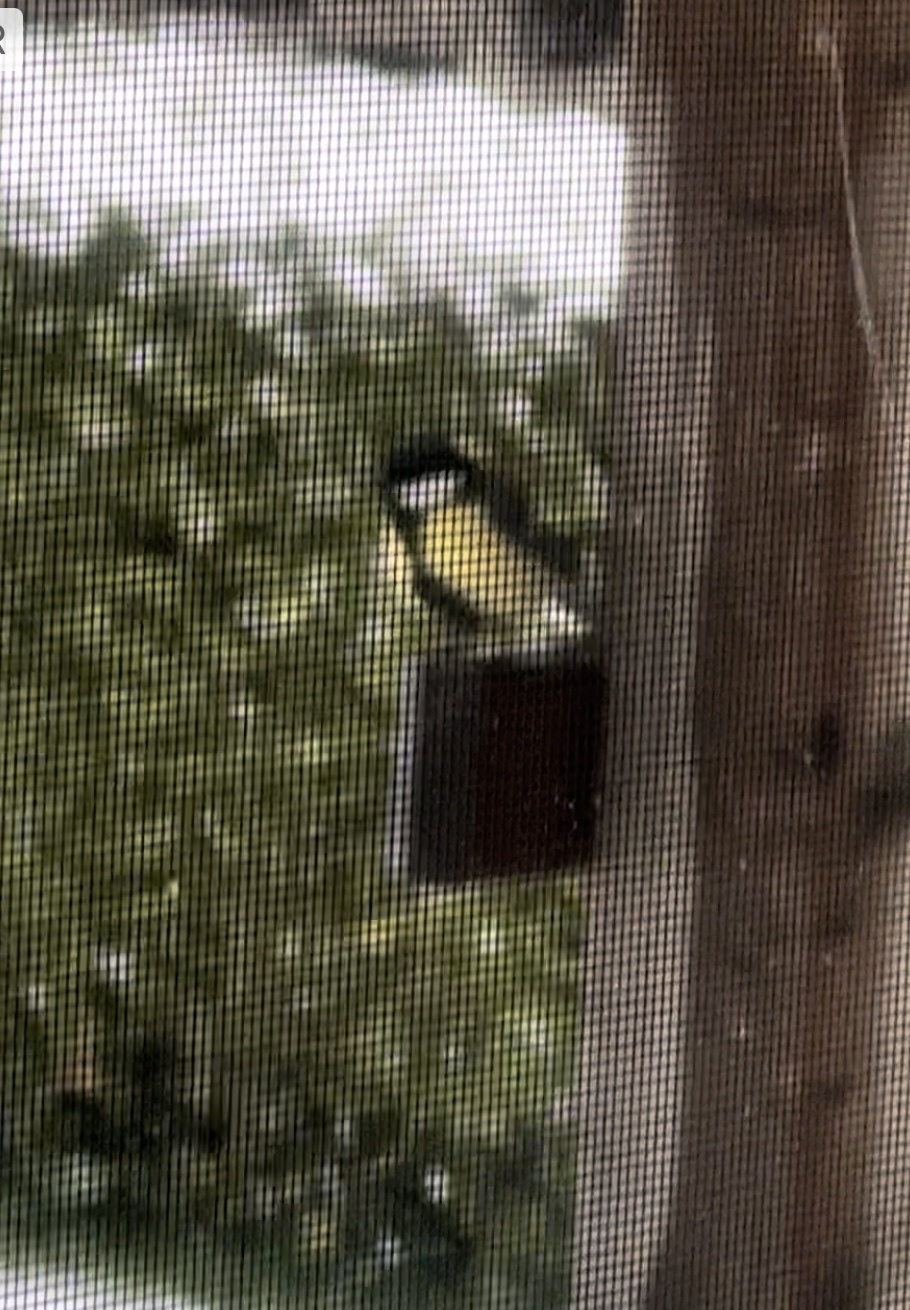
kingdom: Animalia
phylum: Chordata
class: Aves
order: Passeriformes
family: Paridae
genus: Parus
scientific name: Parus major
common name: Great tit
